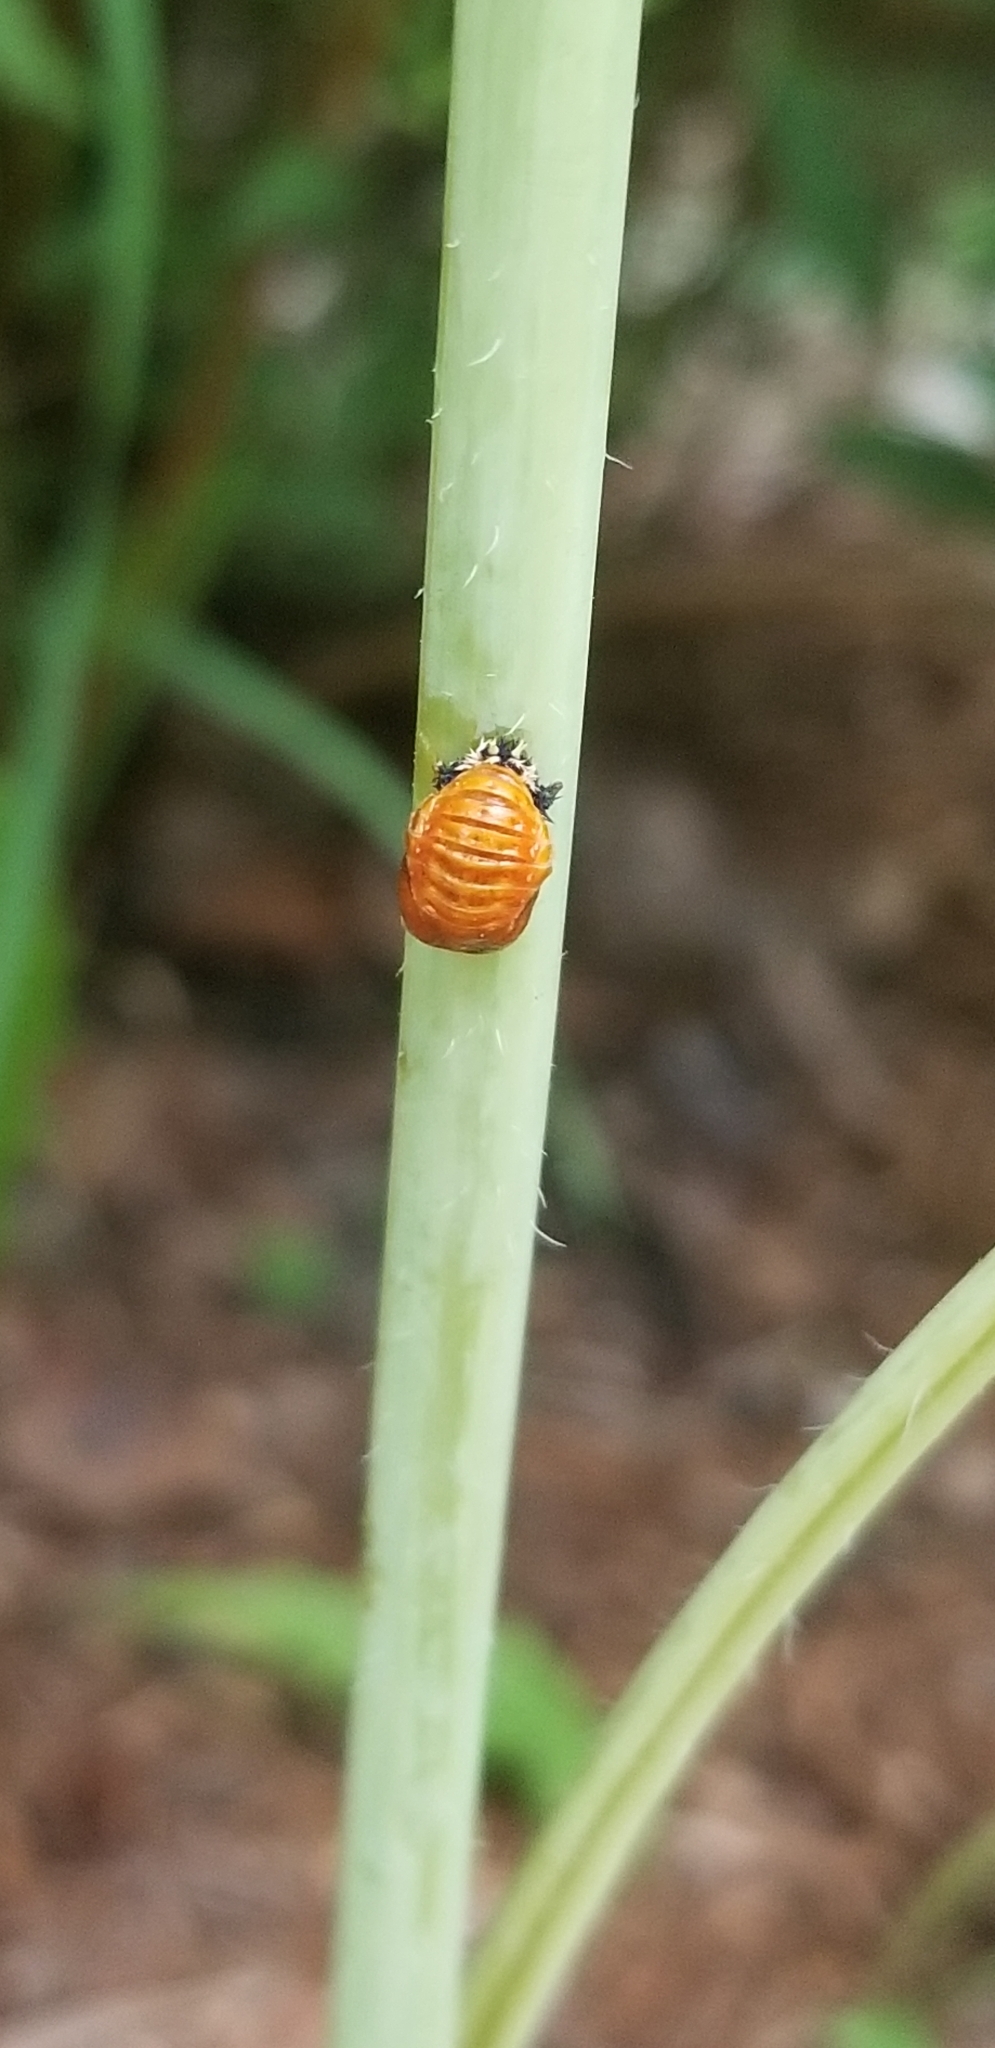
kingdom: Animalia
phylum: Arthropoda
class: Insecta
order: Coleoptera
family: Coccinellidae
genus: Harmonia
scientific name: Harmonia axyridis
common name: Harlequin ladybird
